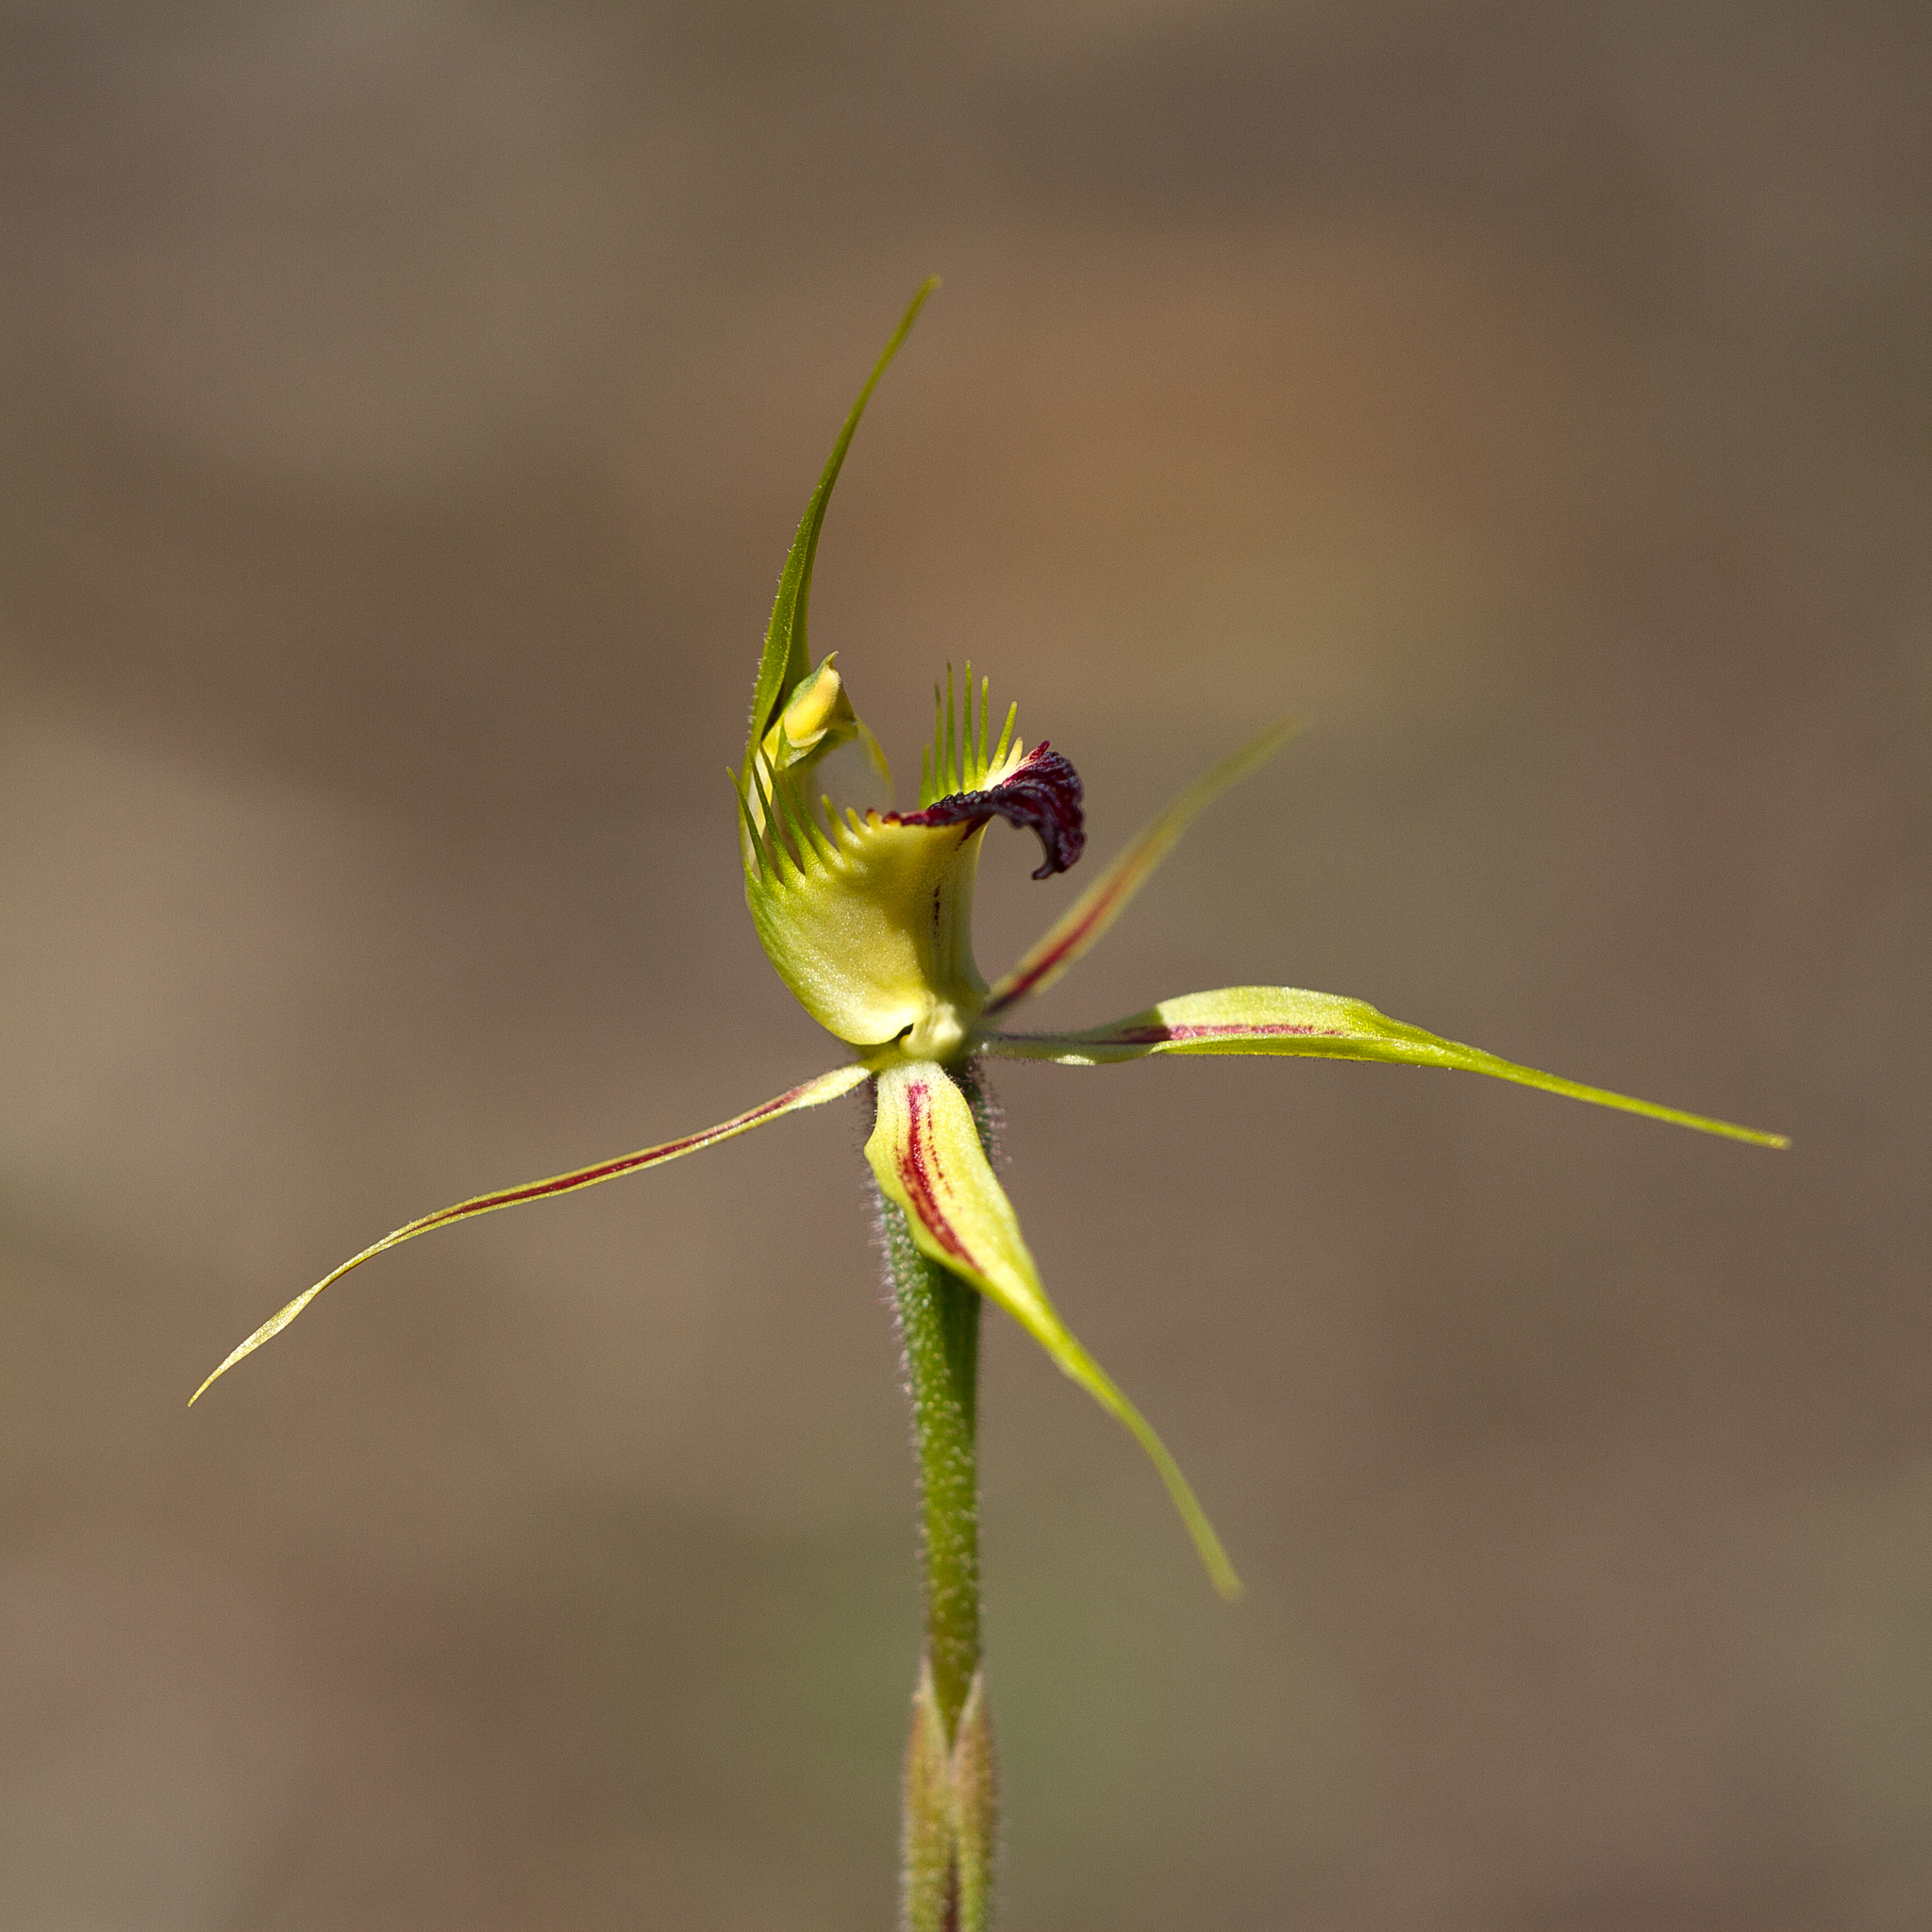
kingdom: Plantae
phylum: Tracheophyta
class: Liliopsida
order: Asparagales
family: Orchidaceae
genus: Caladenia
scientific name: Caladenia stricta
